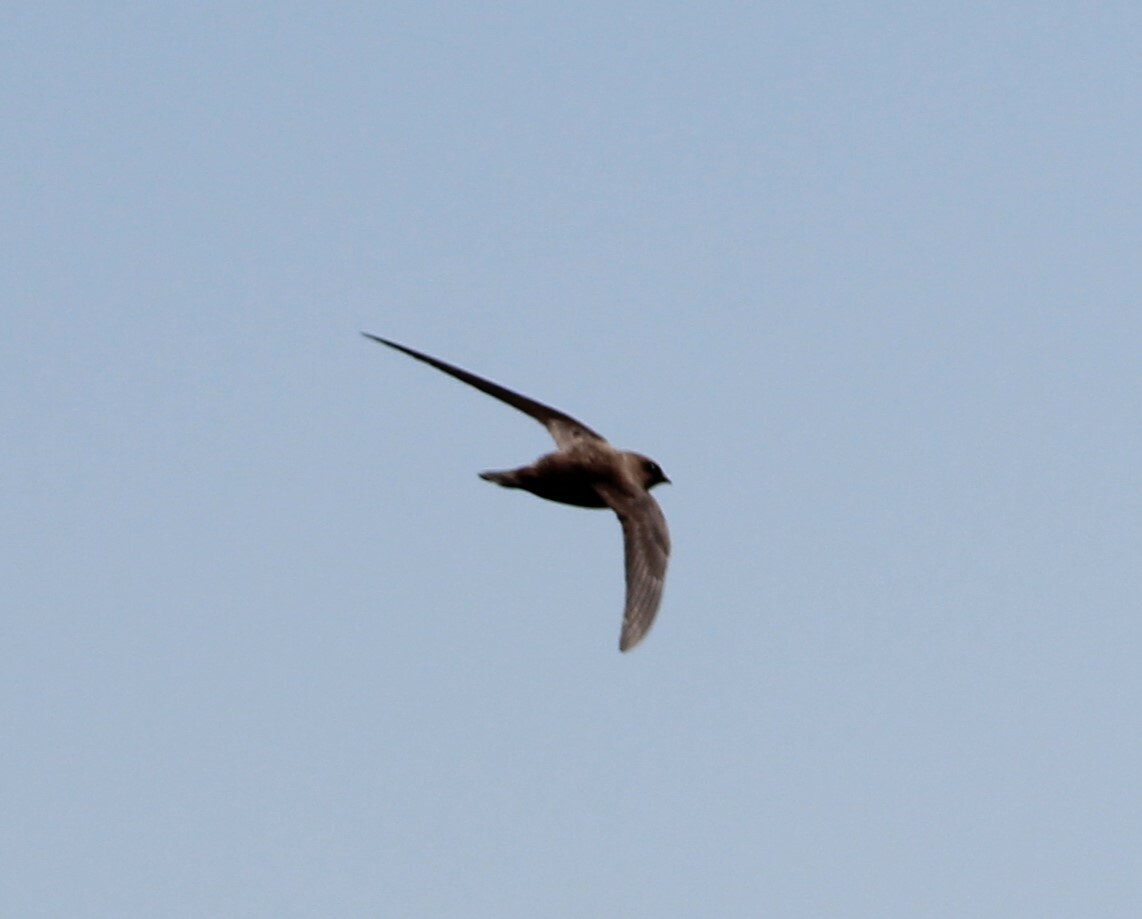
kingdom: Animalia
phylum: Chordata
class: Aves
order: Apodiformes
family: Apodidae
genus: Tachymarptis
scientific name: Tachymarptis melba
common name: Alpine swift
